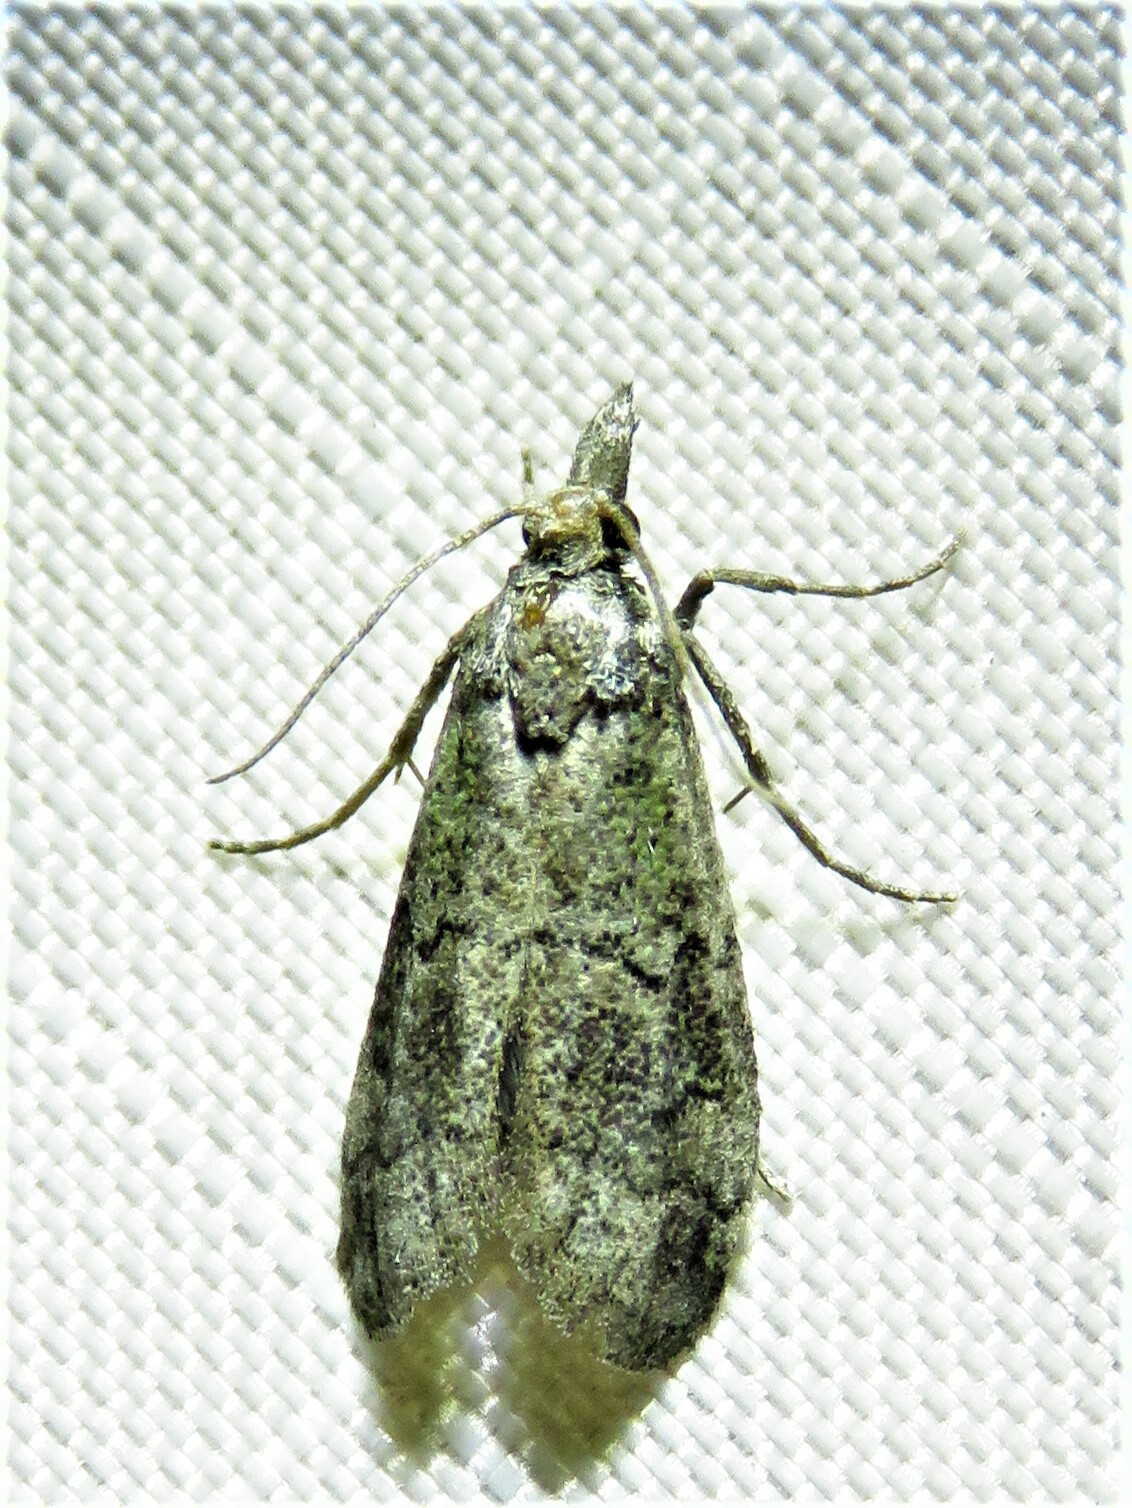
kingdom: Animalia
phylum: Arthropoda
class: Insecta
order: Lepidoptera
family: Pyralidae
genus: Cacotherapia
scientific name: Cacotherapia flexilinealis
